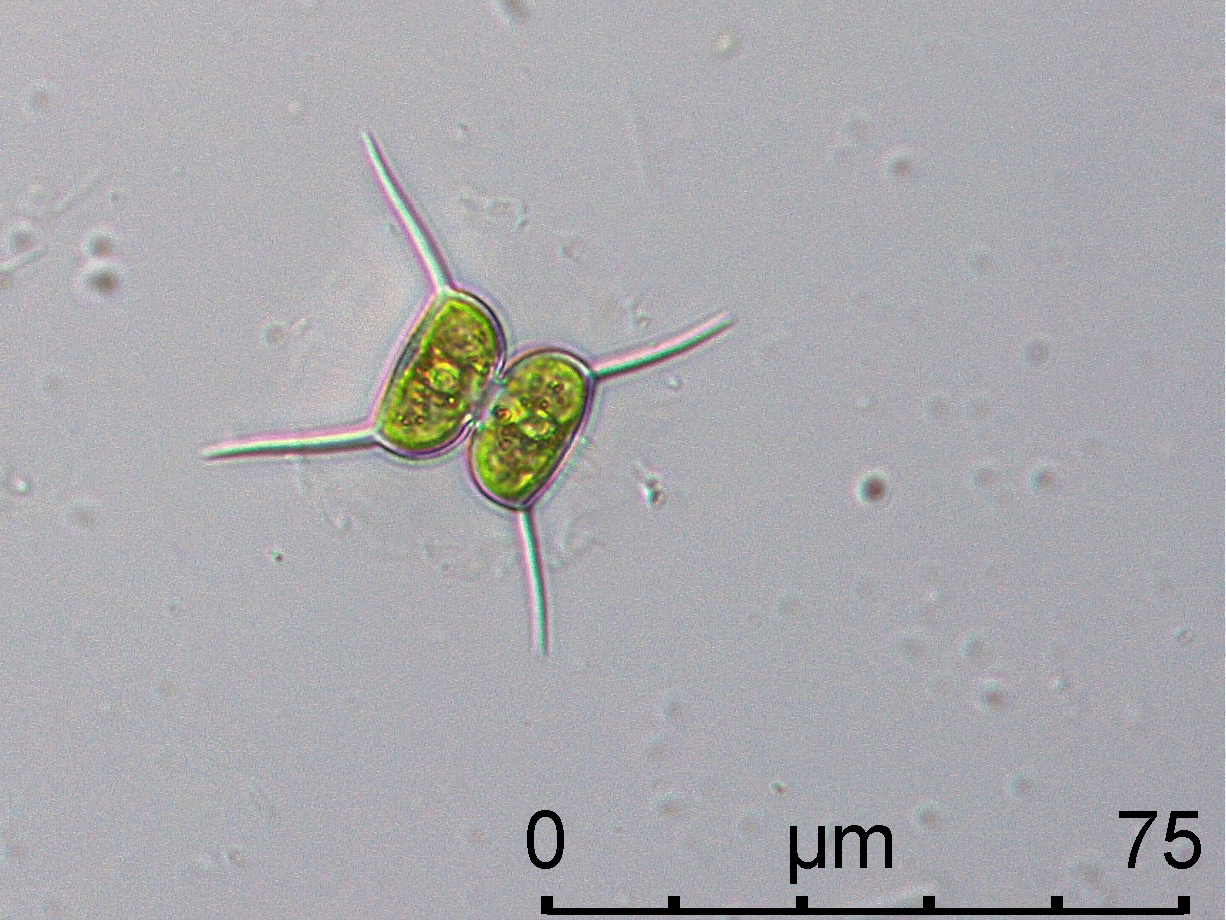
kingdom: Plantae
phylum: Charophyta
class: Conjugatophyceae
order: Desmidiales
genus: Staurodesmus
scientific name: Staurodesmus bulnheimii
